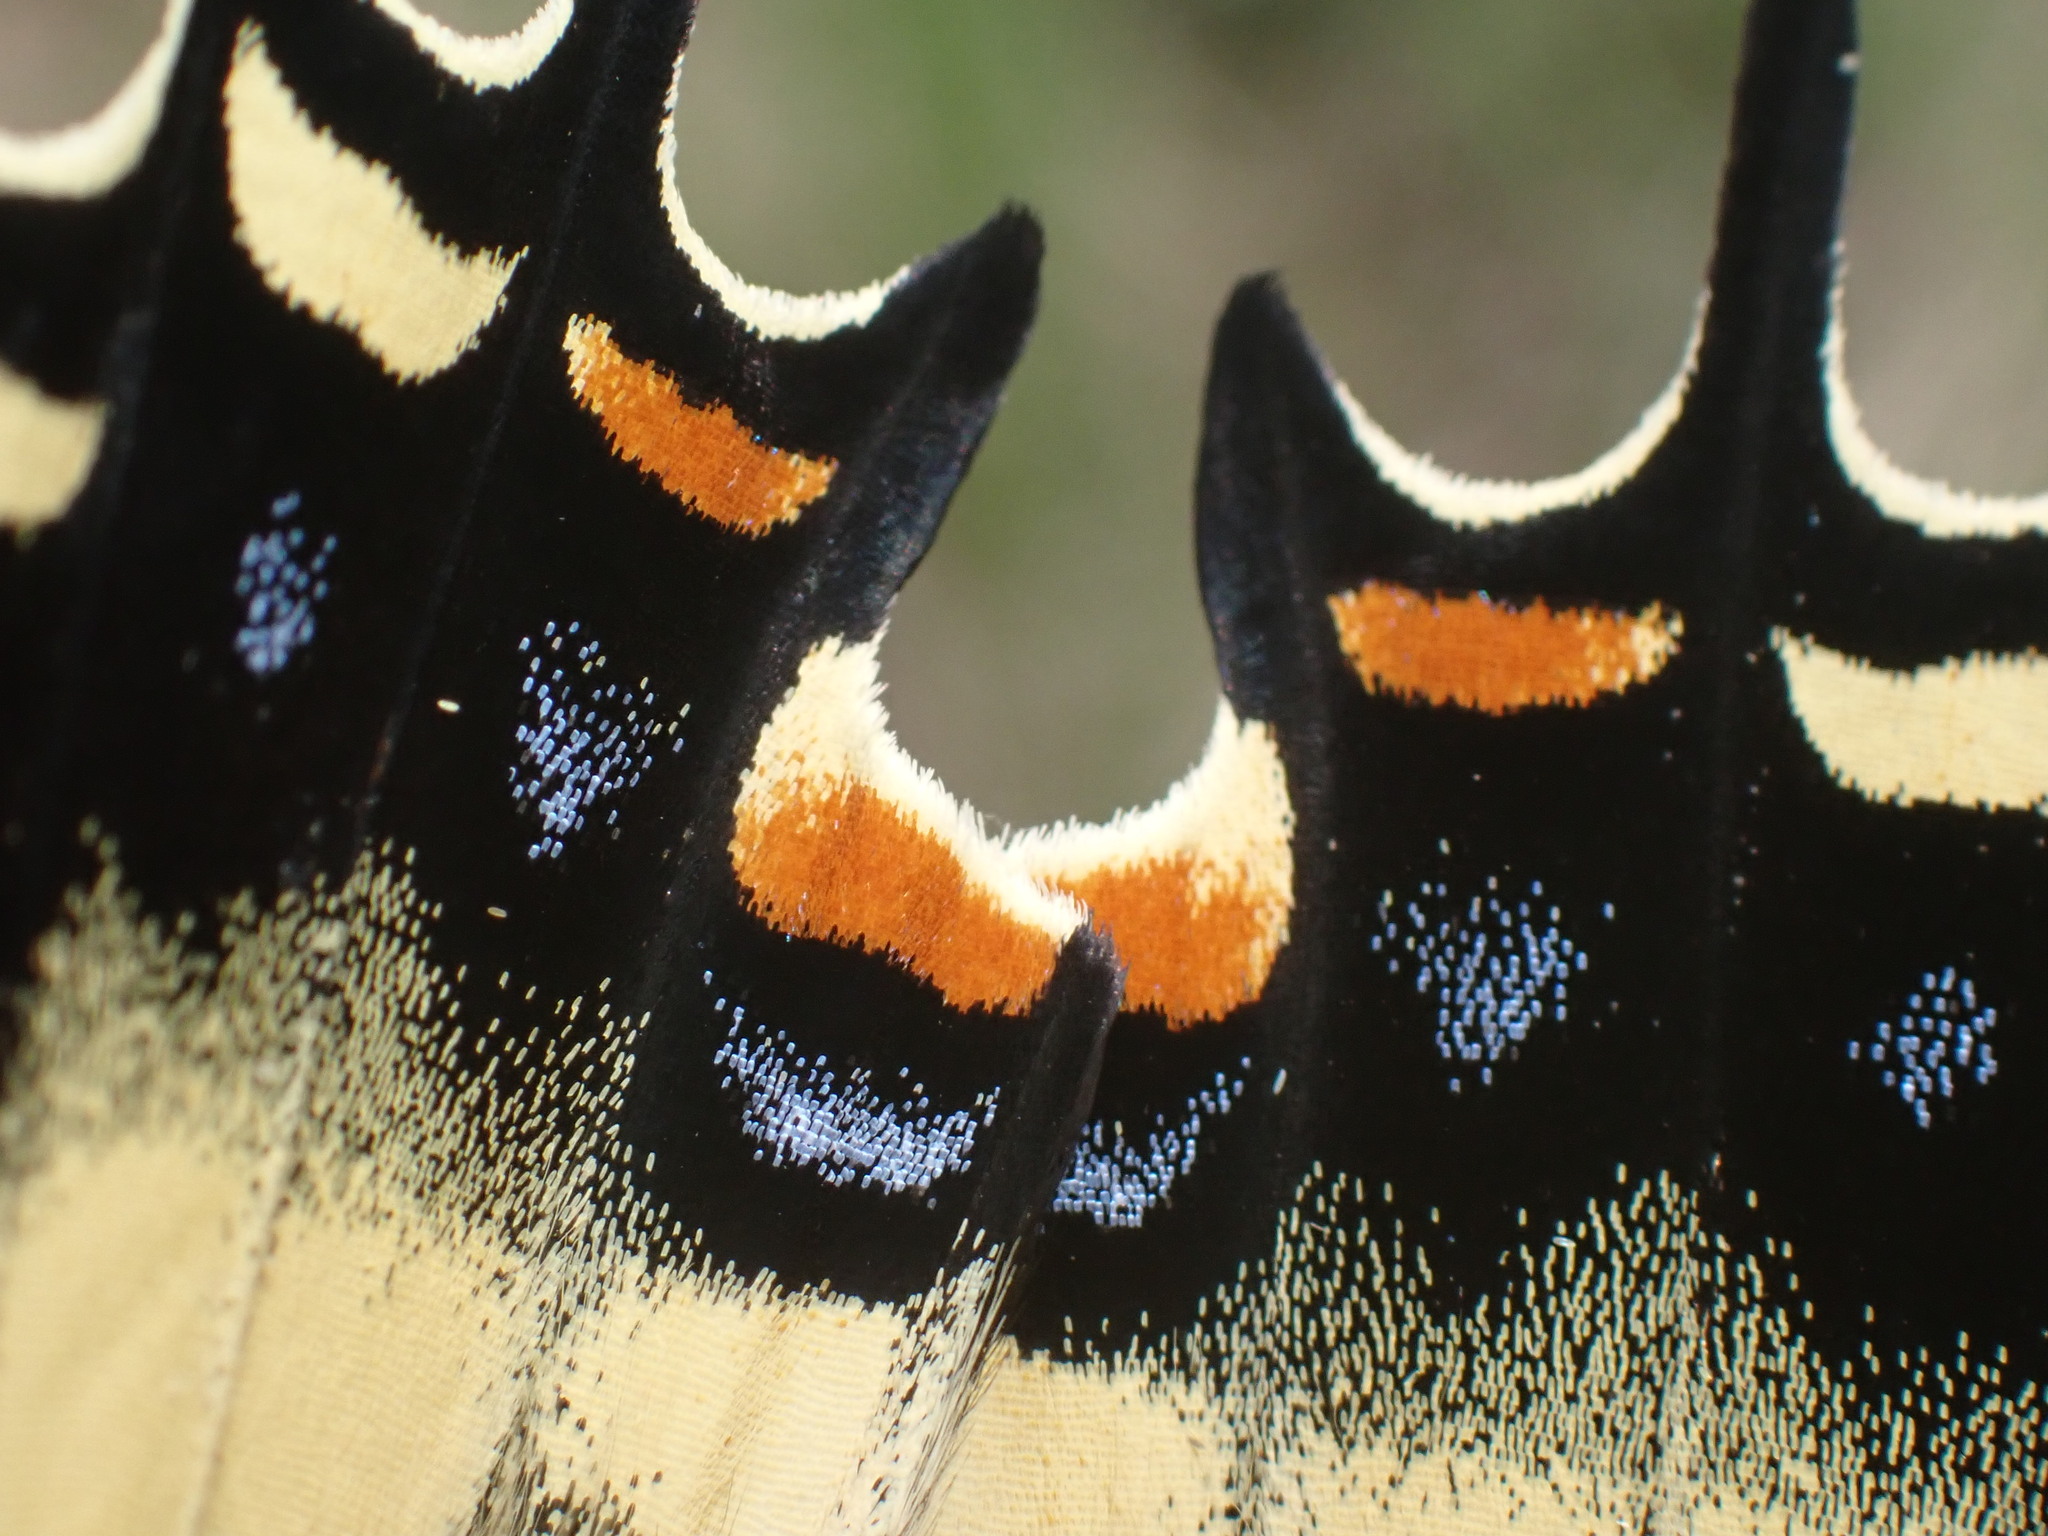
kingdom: Animalia
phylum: Arthropoda
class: Insecta
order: Lepidoptera
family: Papilionidae
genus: Papilio
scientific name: Papilio multicaudata
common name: Two-tailed tiger swallowtail
